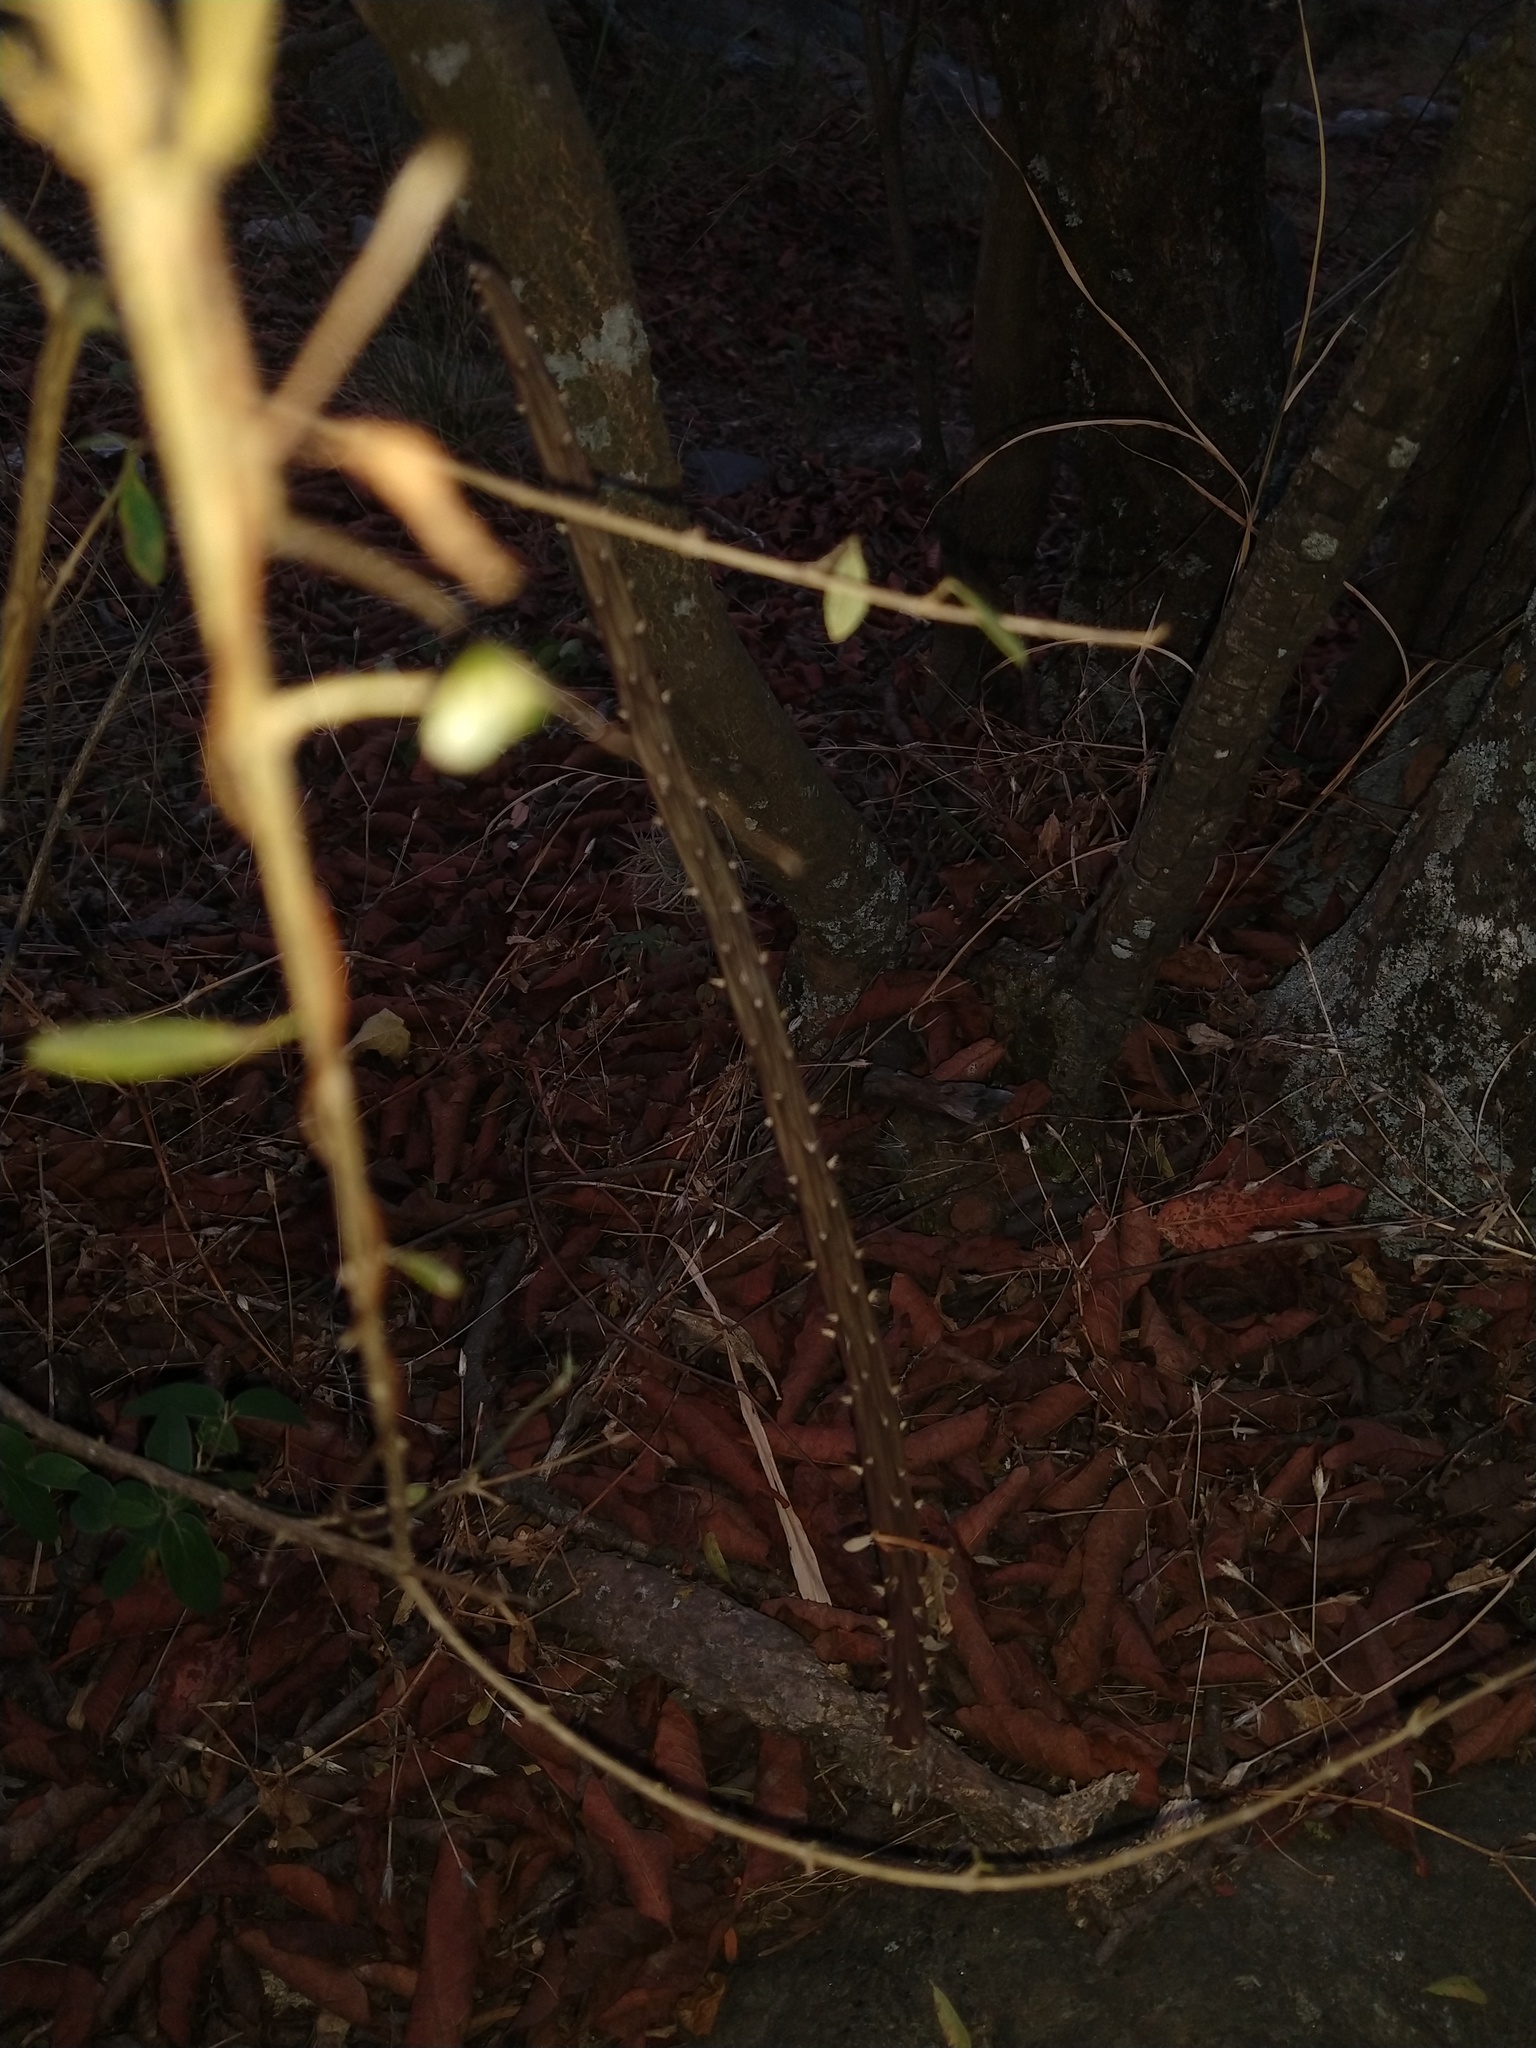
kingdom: Plantae
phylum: Tracheophyta
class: Magnoliopsida
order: Caryophyllales
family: Cactaceae
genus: Salmonopuntia
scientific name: Salmonopuntia salmiana
